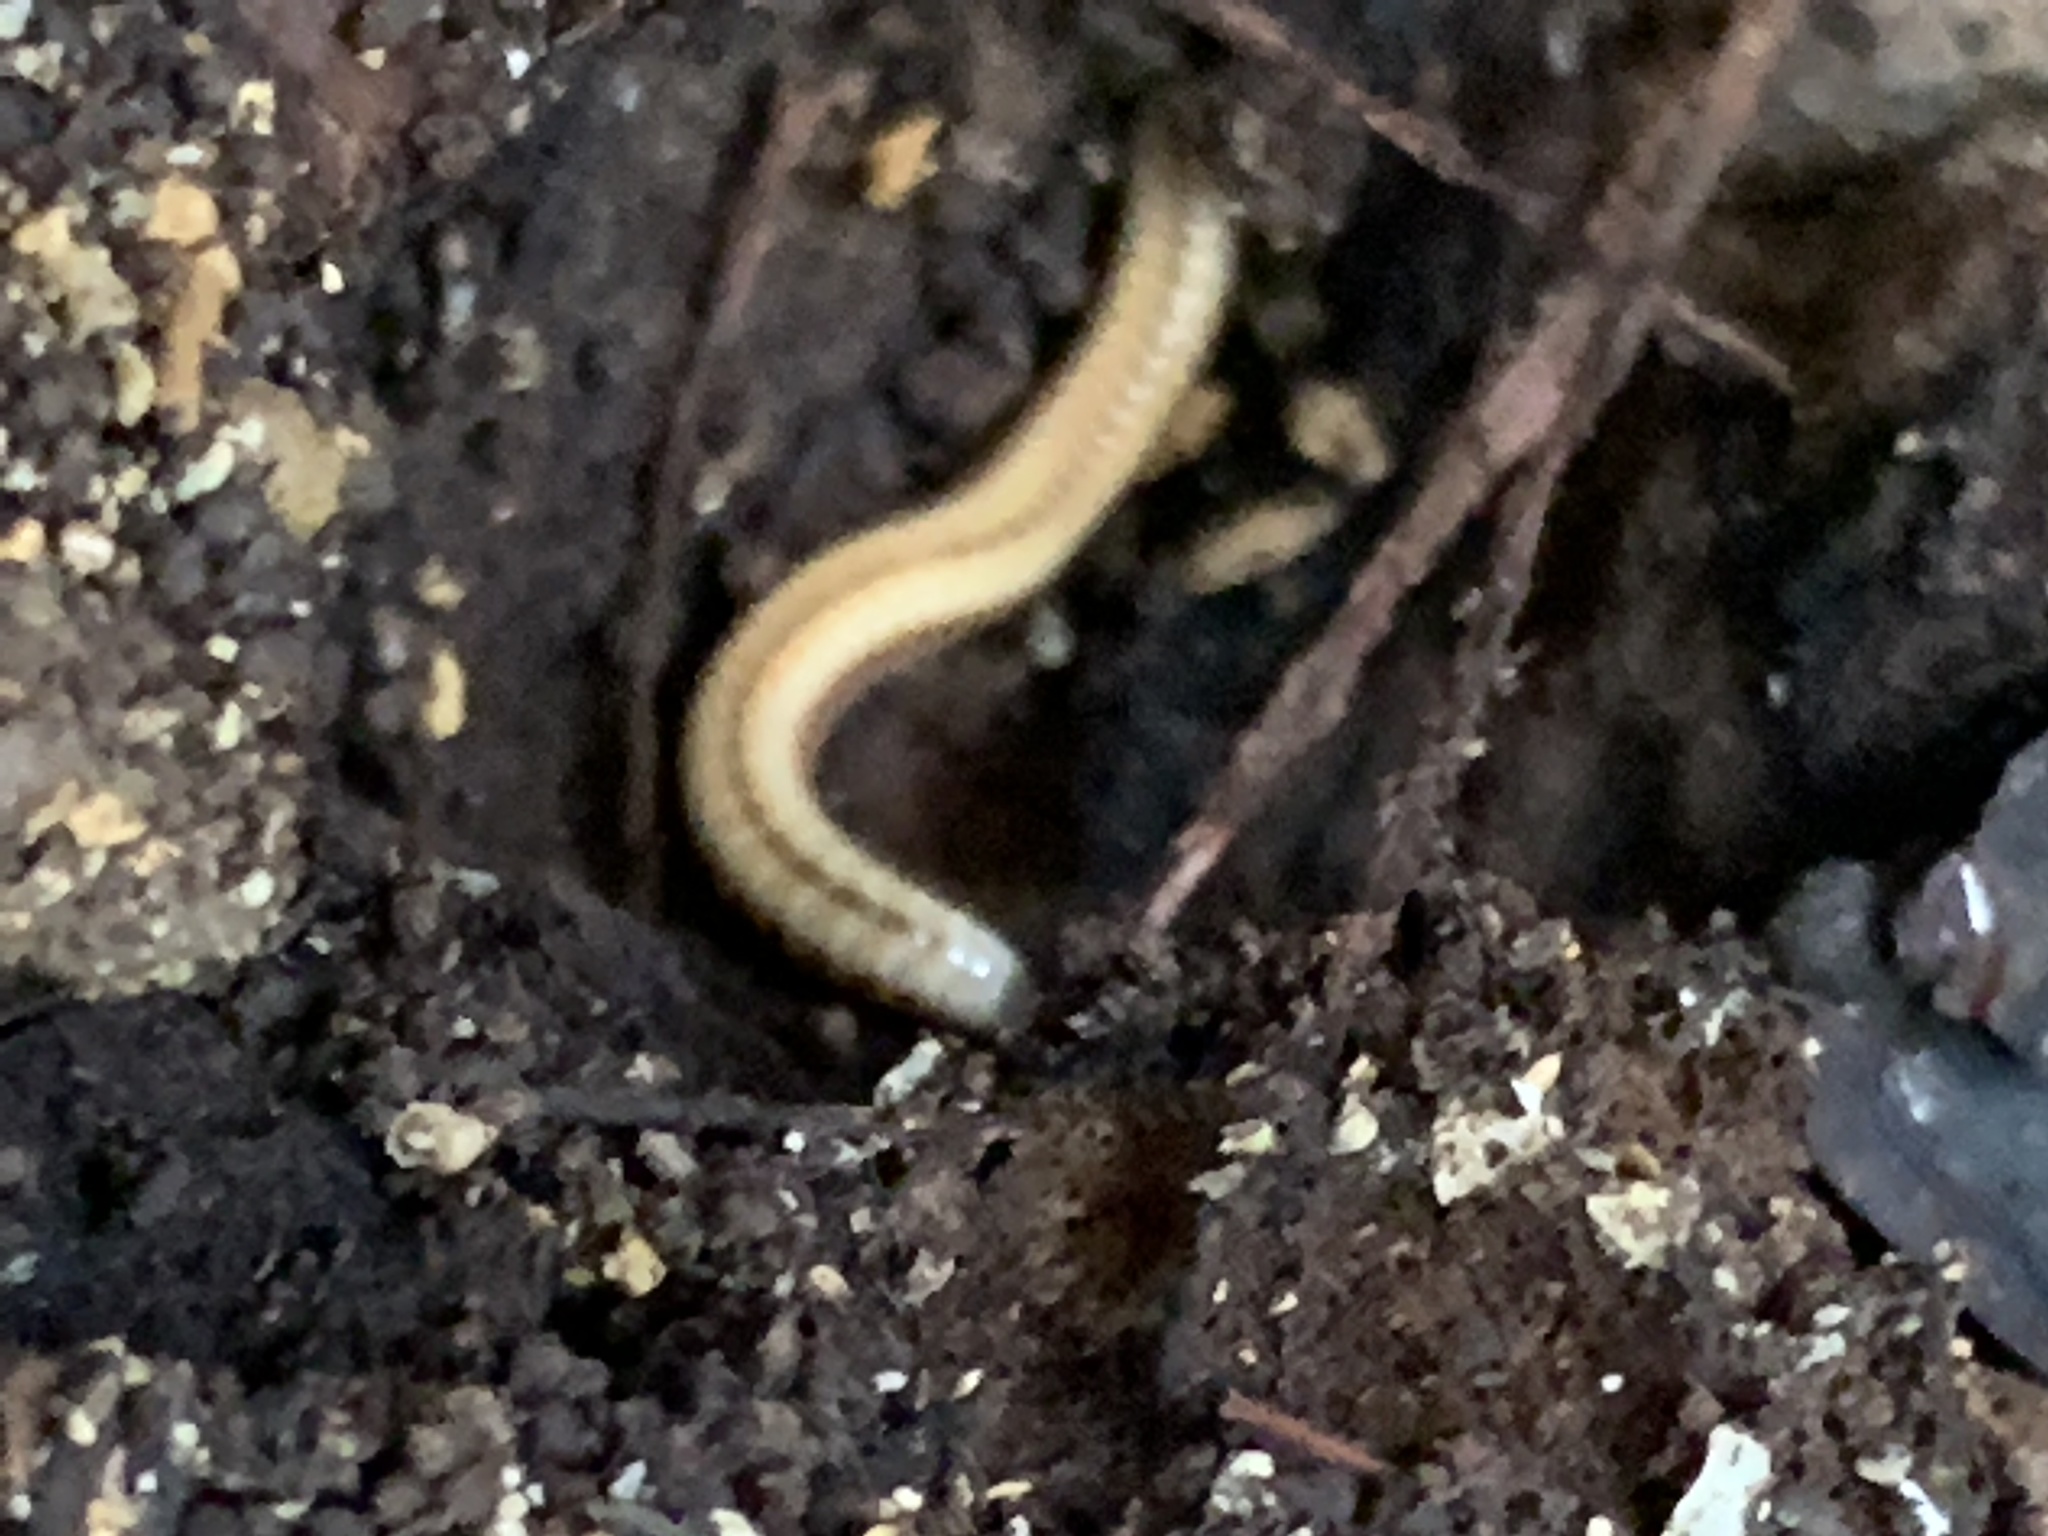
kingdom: Animalia
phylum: Arthropoda
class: Diplopoda
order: Spirobolida
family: Spirobolellidae
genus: Spirobolellus
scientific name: Spirobolellus immigrans
